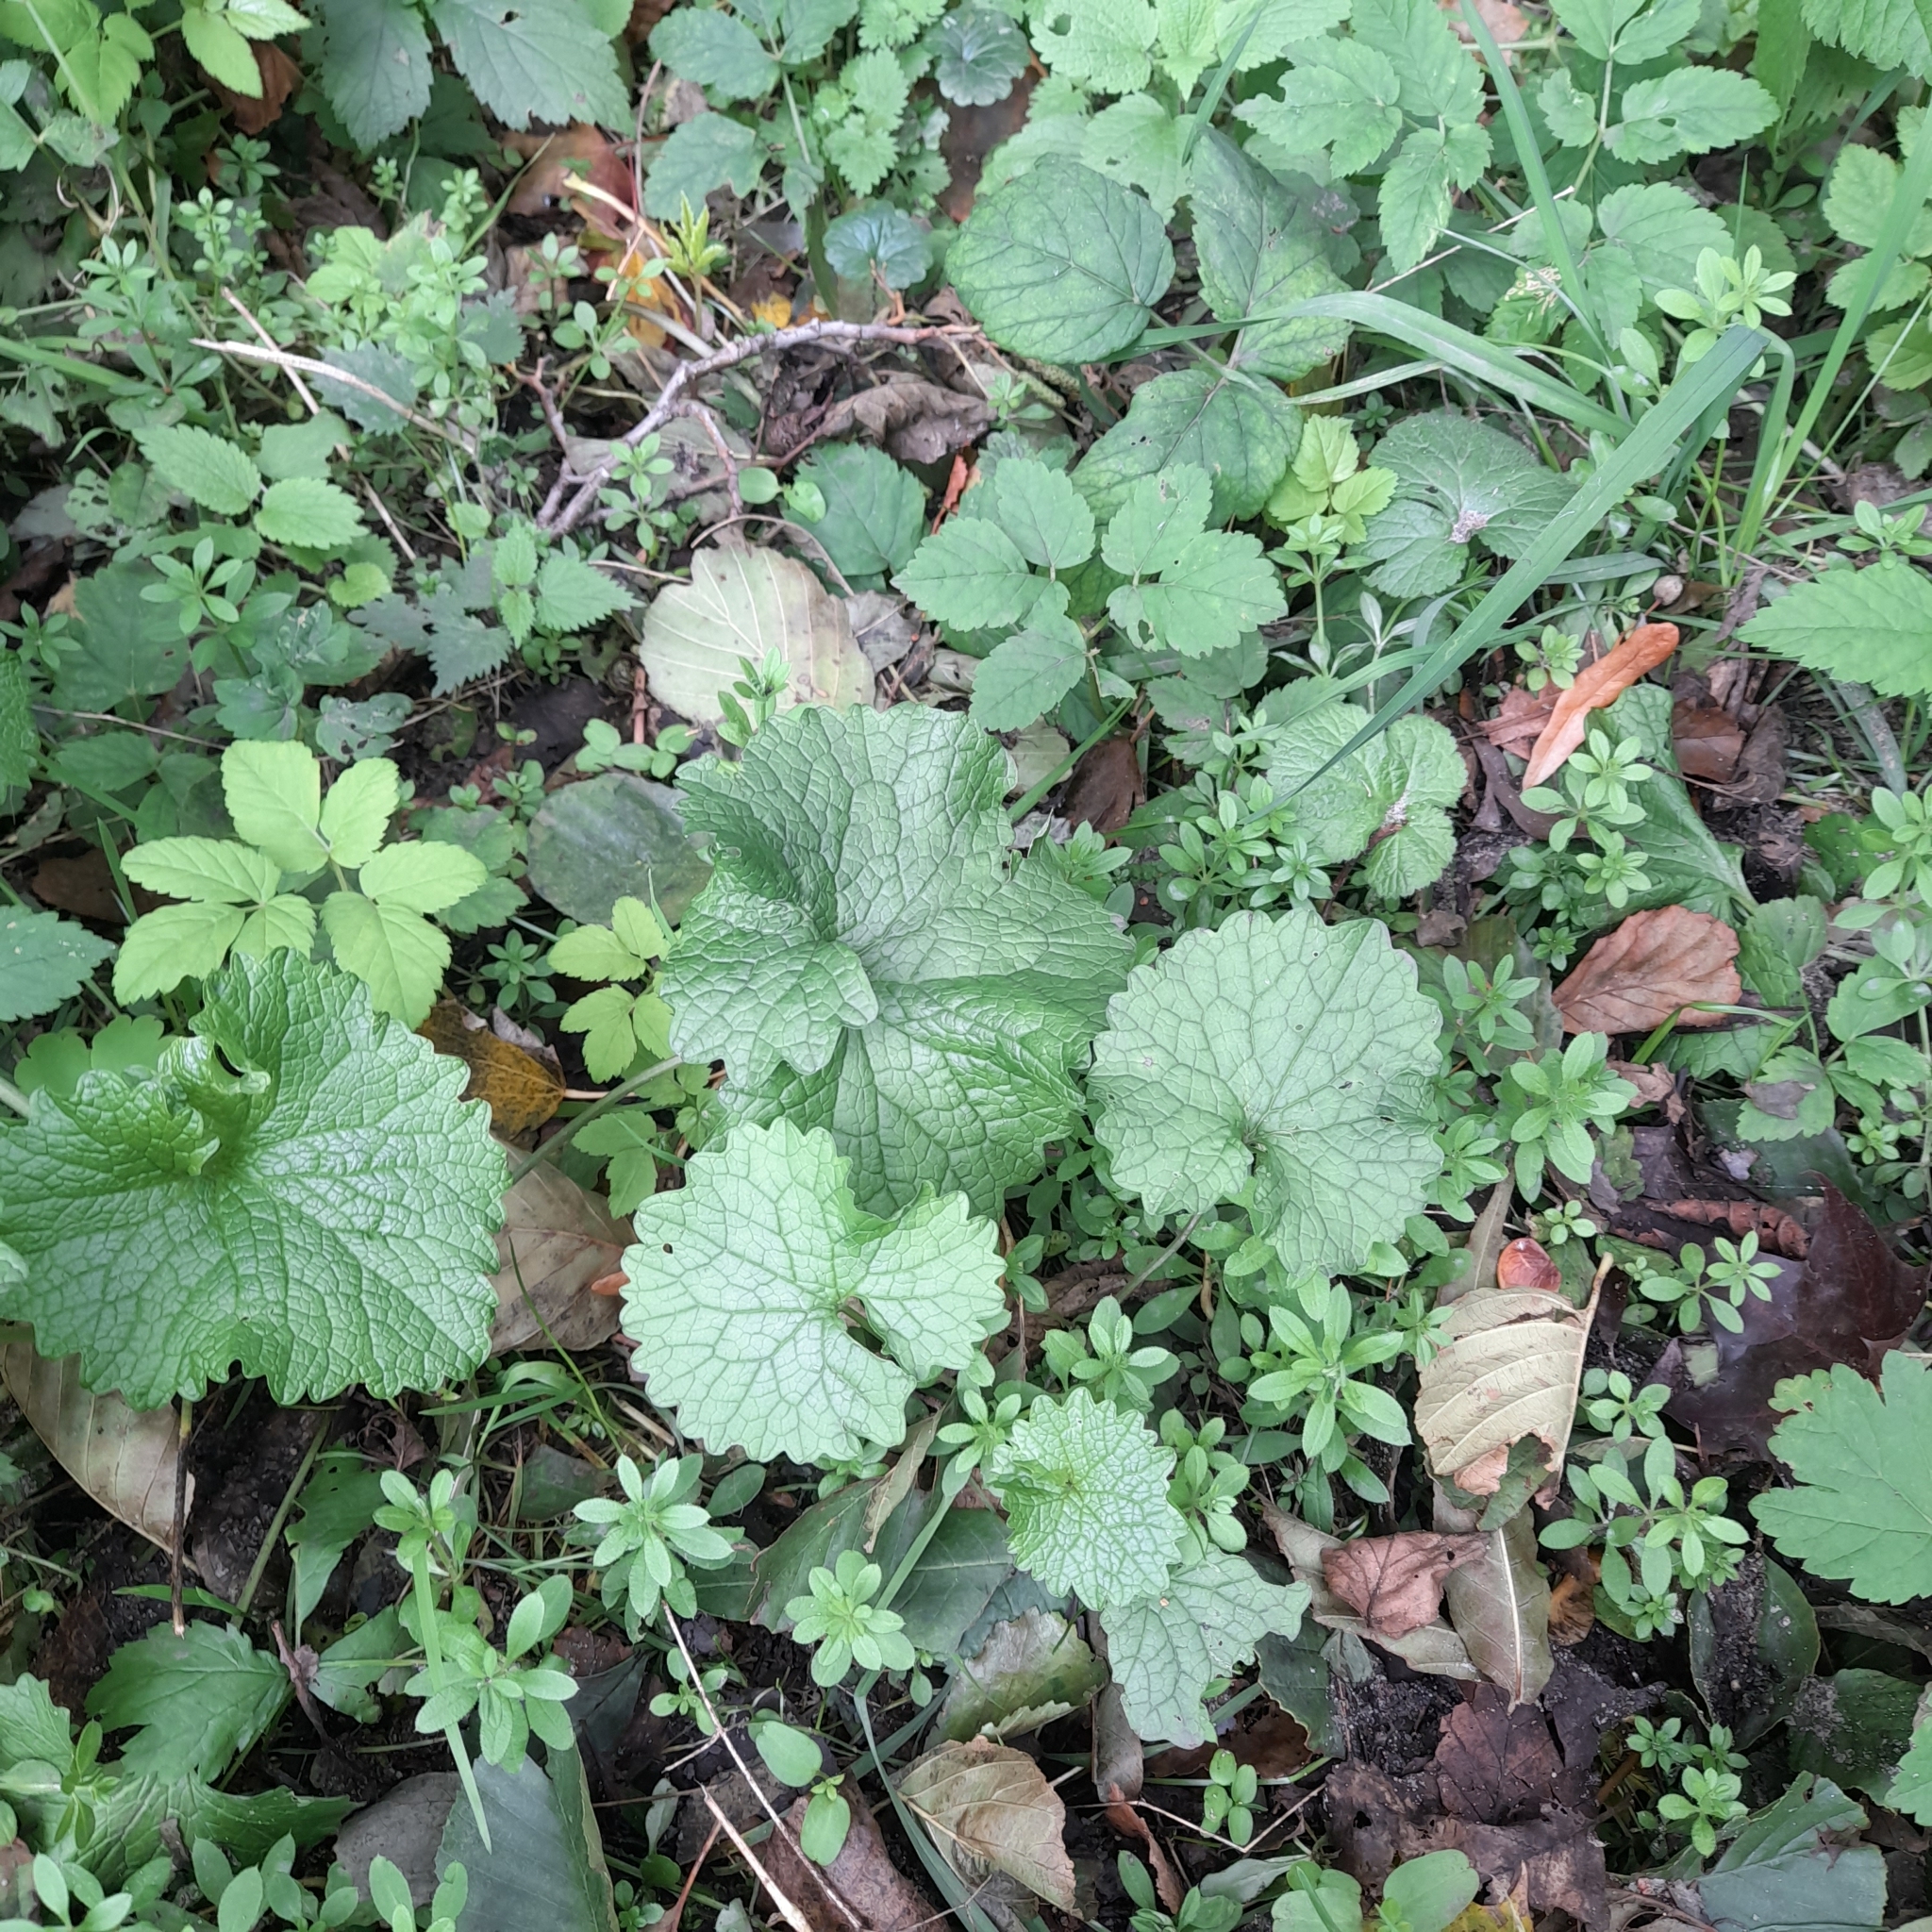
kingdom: Plantae
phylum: Tracheophyta
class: Magnoliopsida
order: Brassicales
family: Brassicaceae
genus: Alliaria
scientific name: Alliaria petiolata
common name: Garlic mustard
